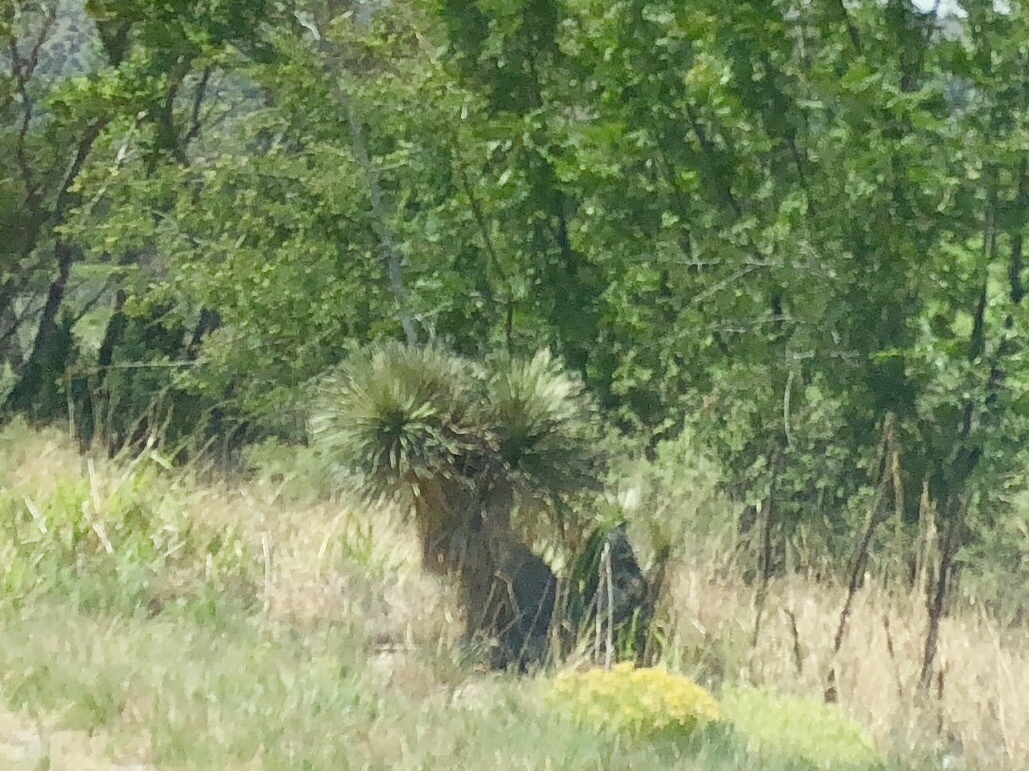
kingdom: Plantae
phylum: Tracheophyta
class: Liliopsida
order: Asparagales
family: Asparagaceae
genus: Yucca
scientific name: Yucca elata
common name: Palmella
